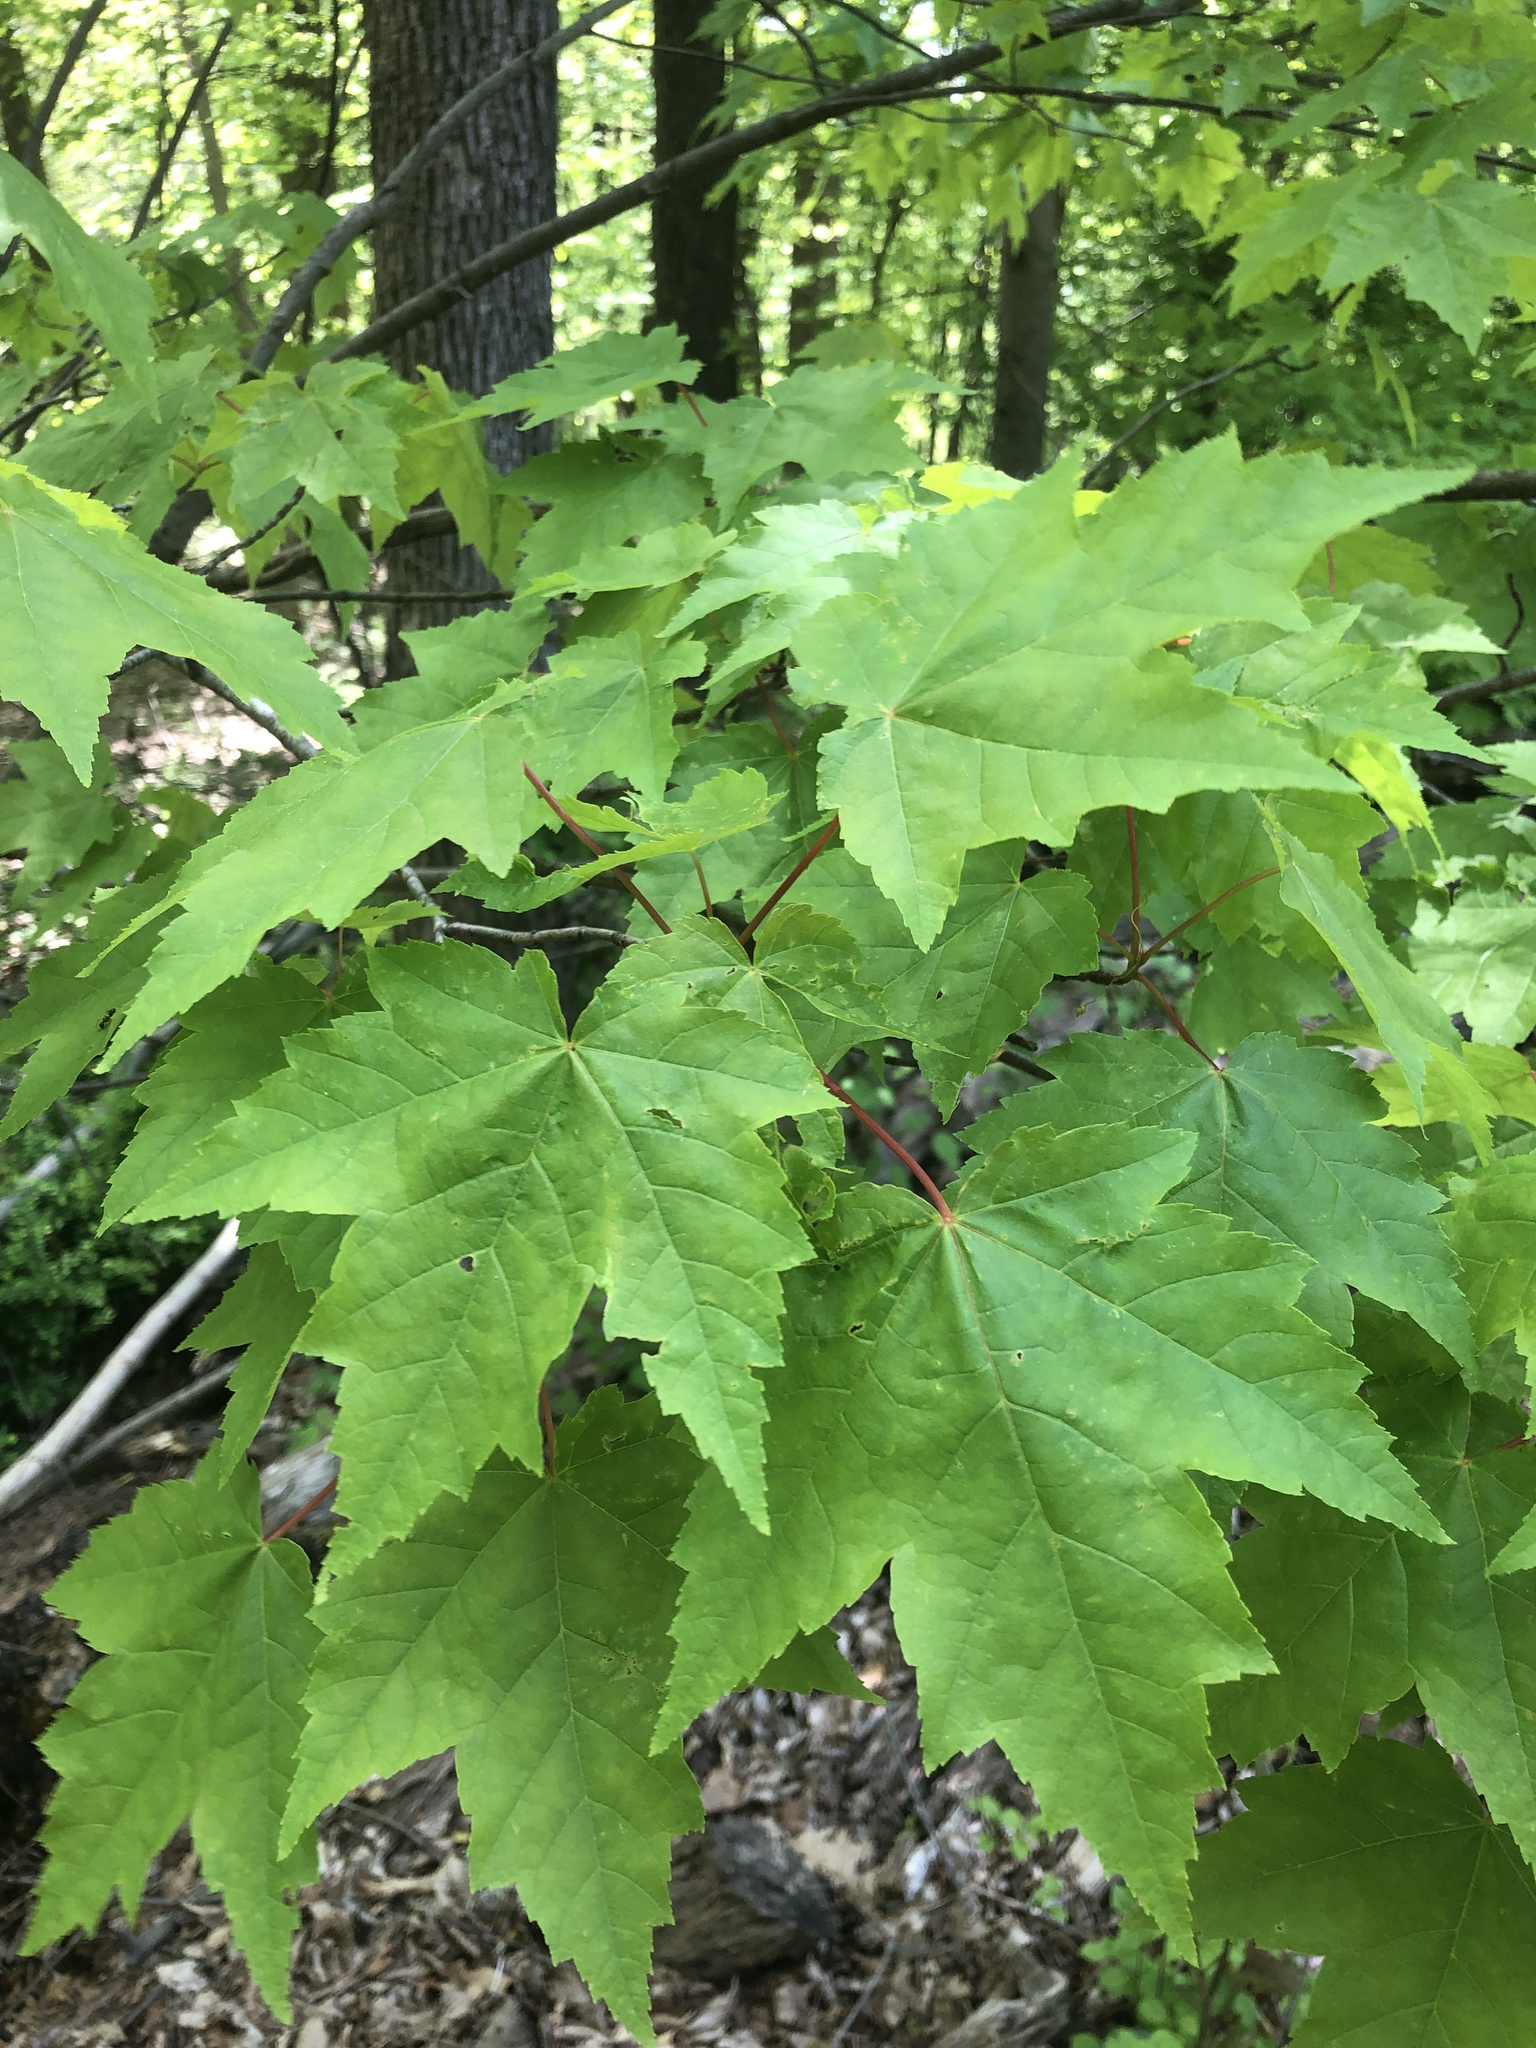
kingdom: Plantae
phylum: Tracheophyta
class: Magnoliopsida
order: Sapindales
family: Sapindaceae
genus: Acer
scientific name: Acer rubrum
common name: Red maple
